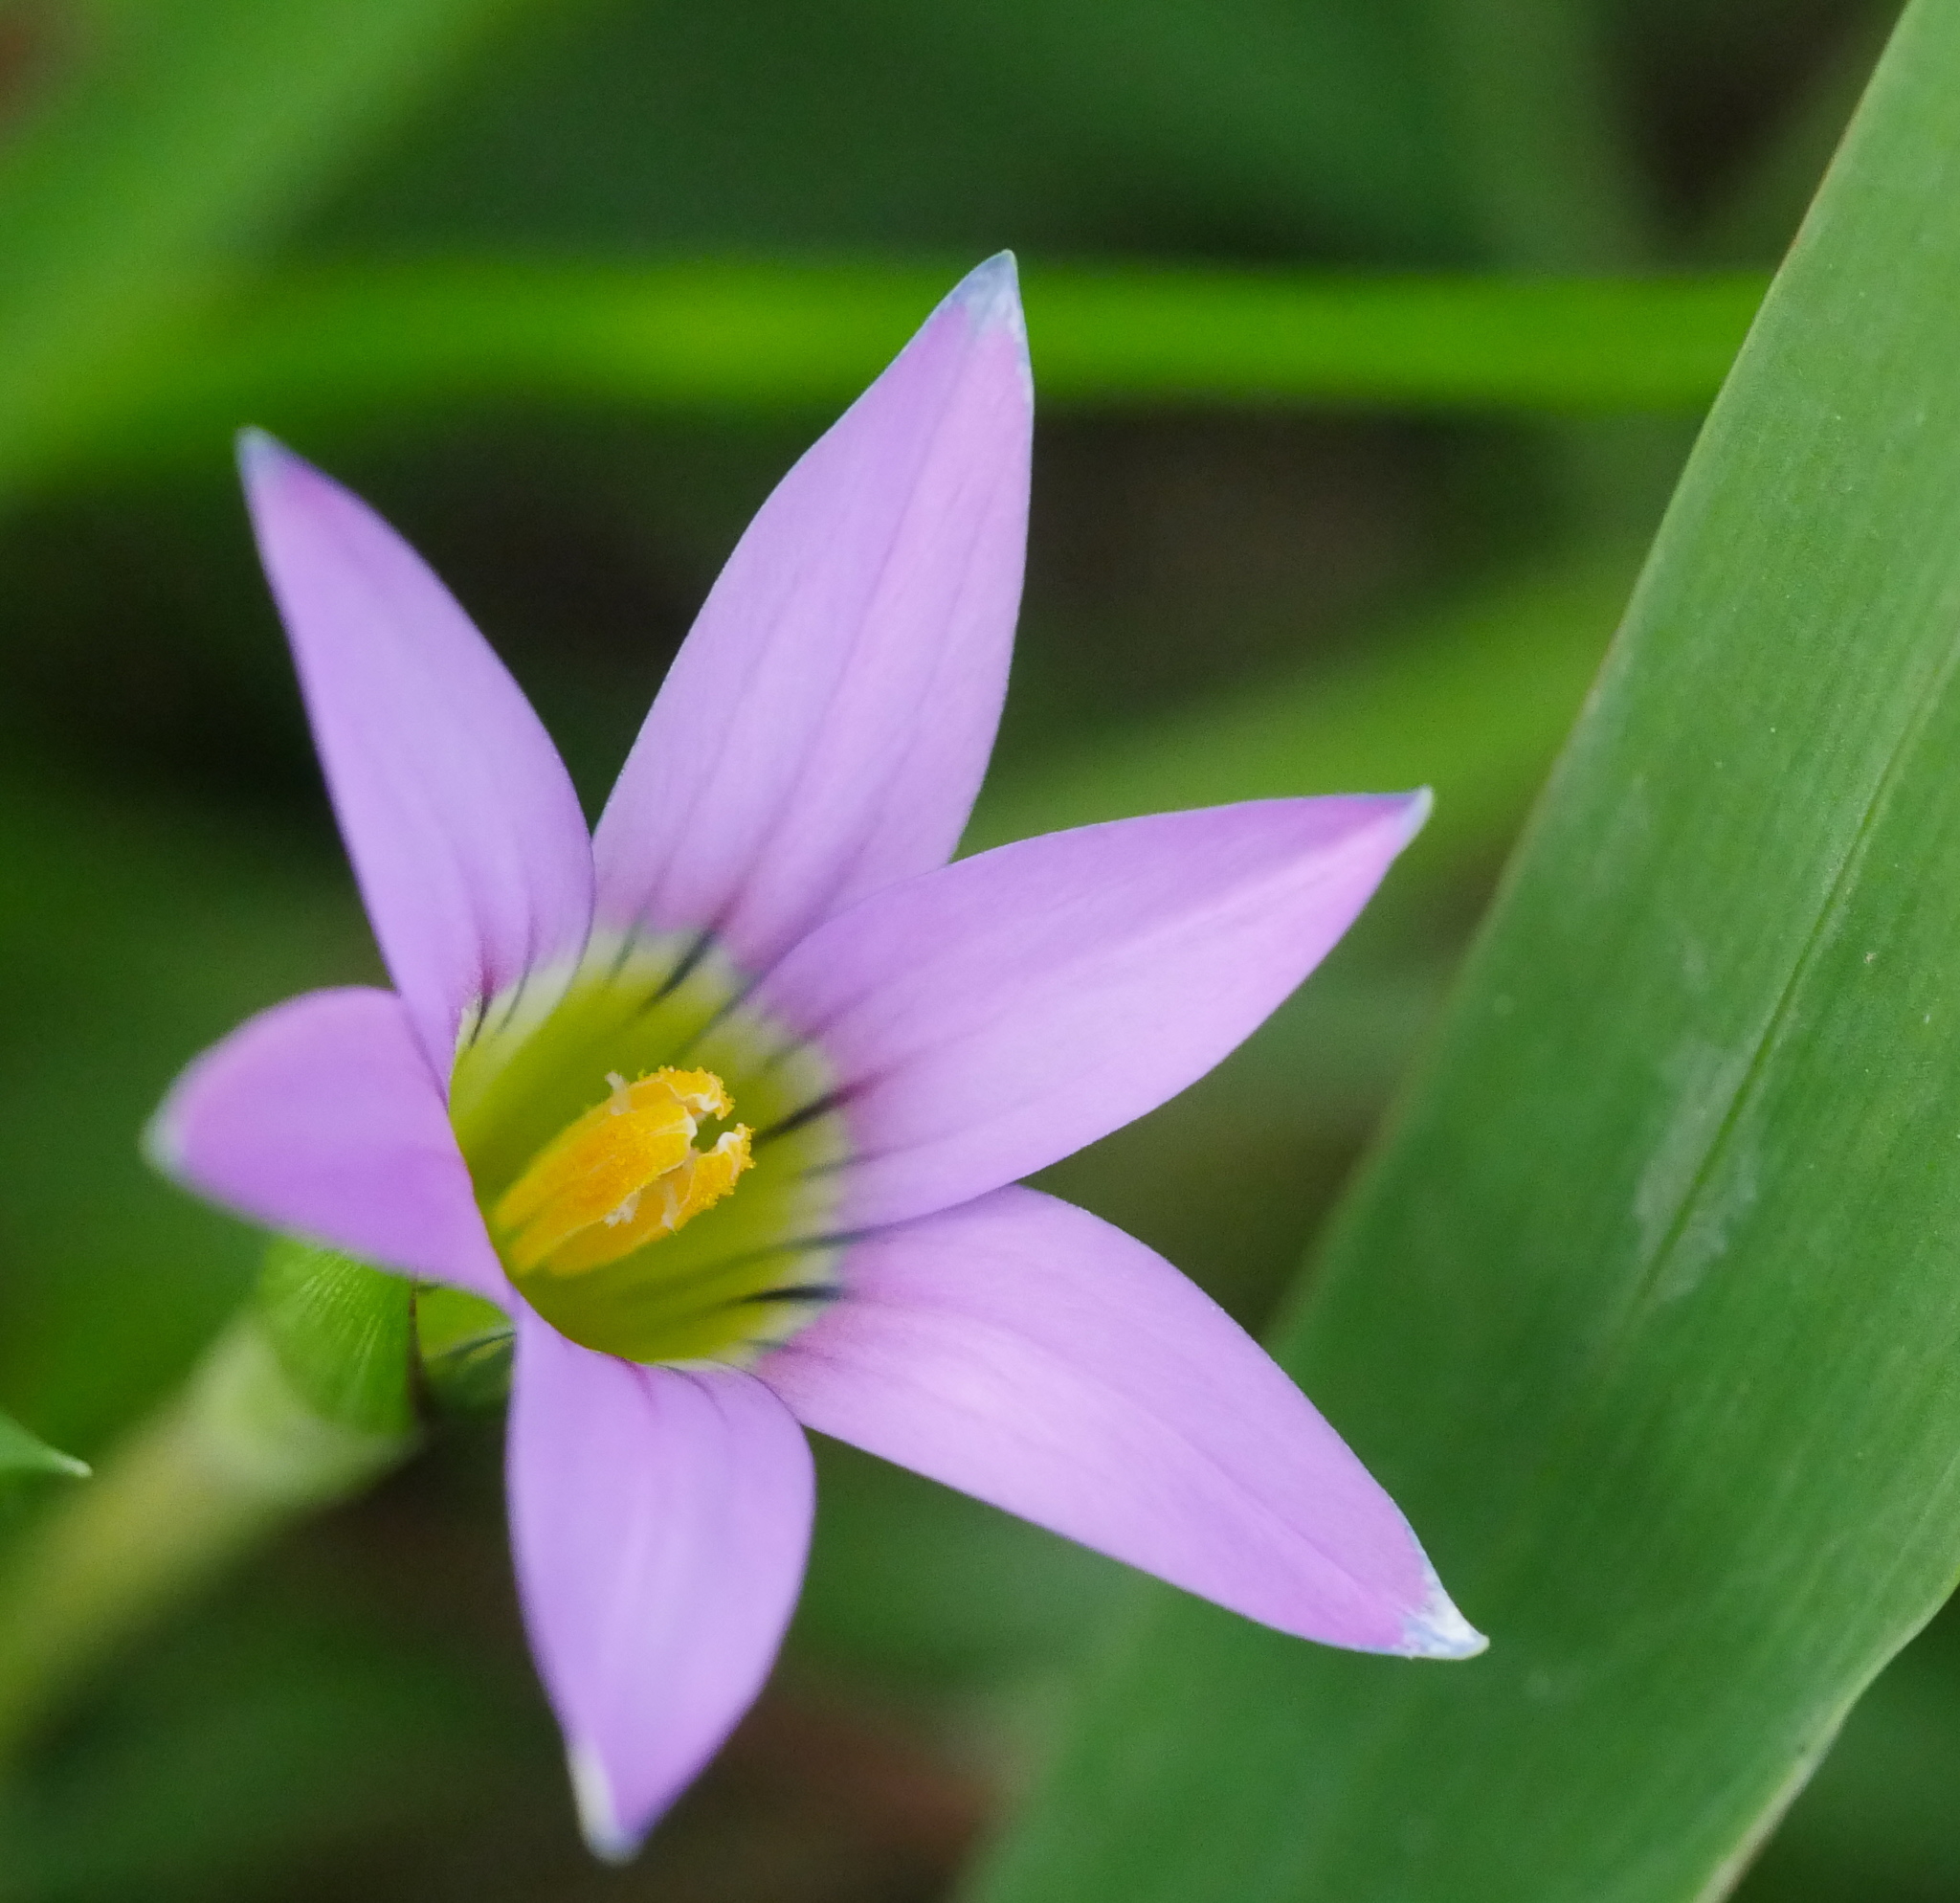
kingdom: Plantae
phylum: Tracheophyta
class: Liliopsida
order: Asparagales
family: Iridaceae
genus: Romulea
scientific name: Romulea rosea
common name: Oniongrass
